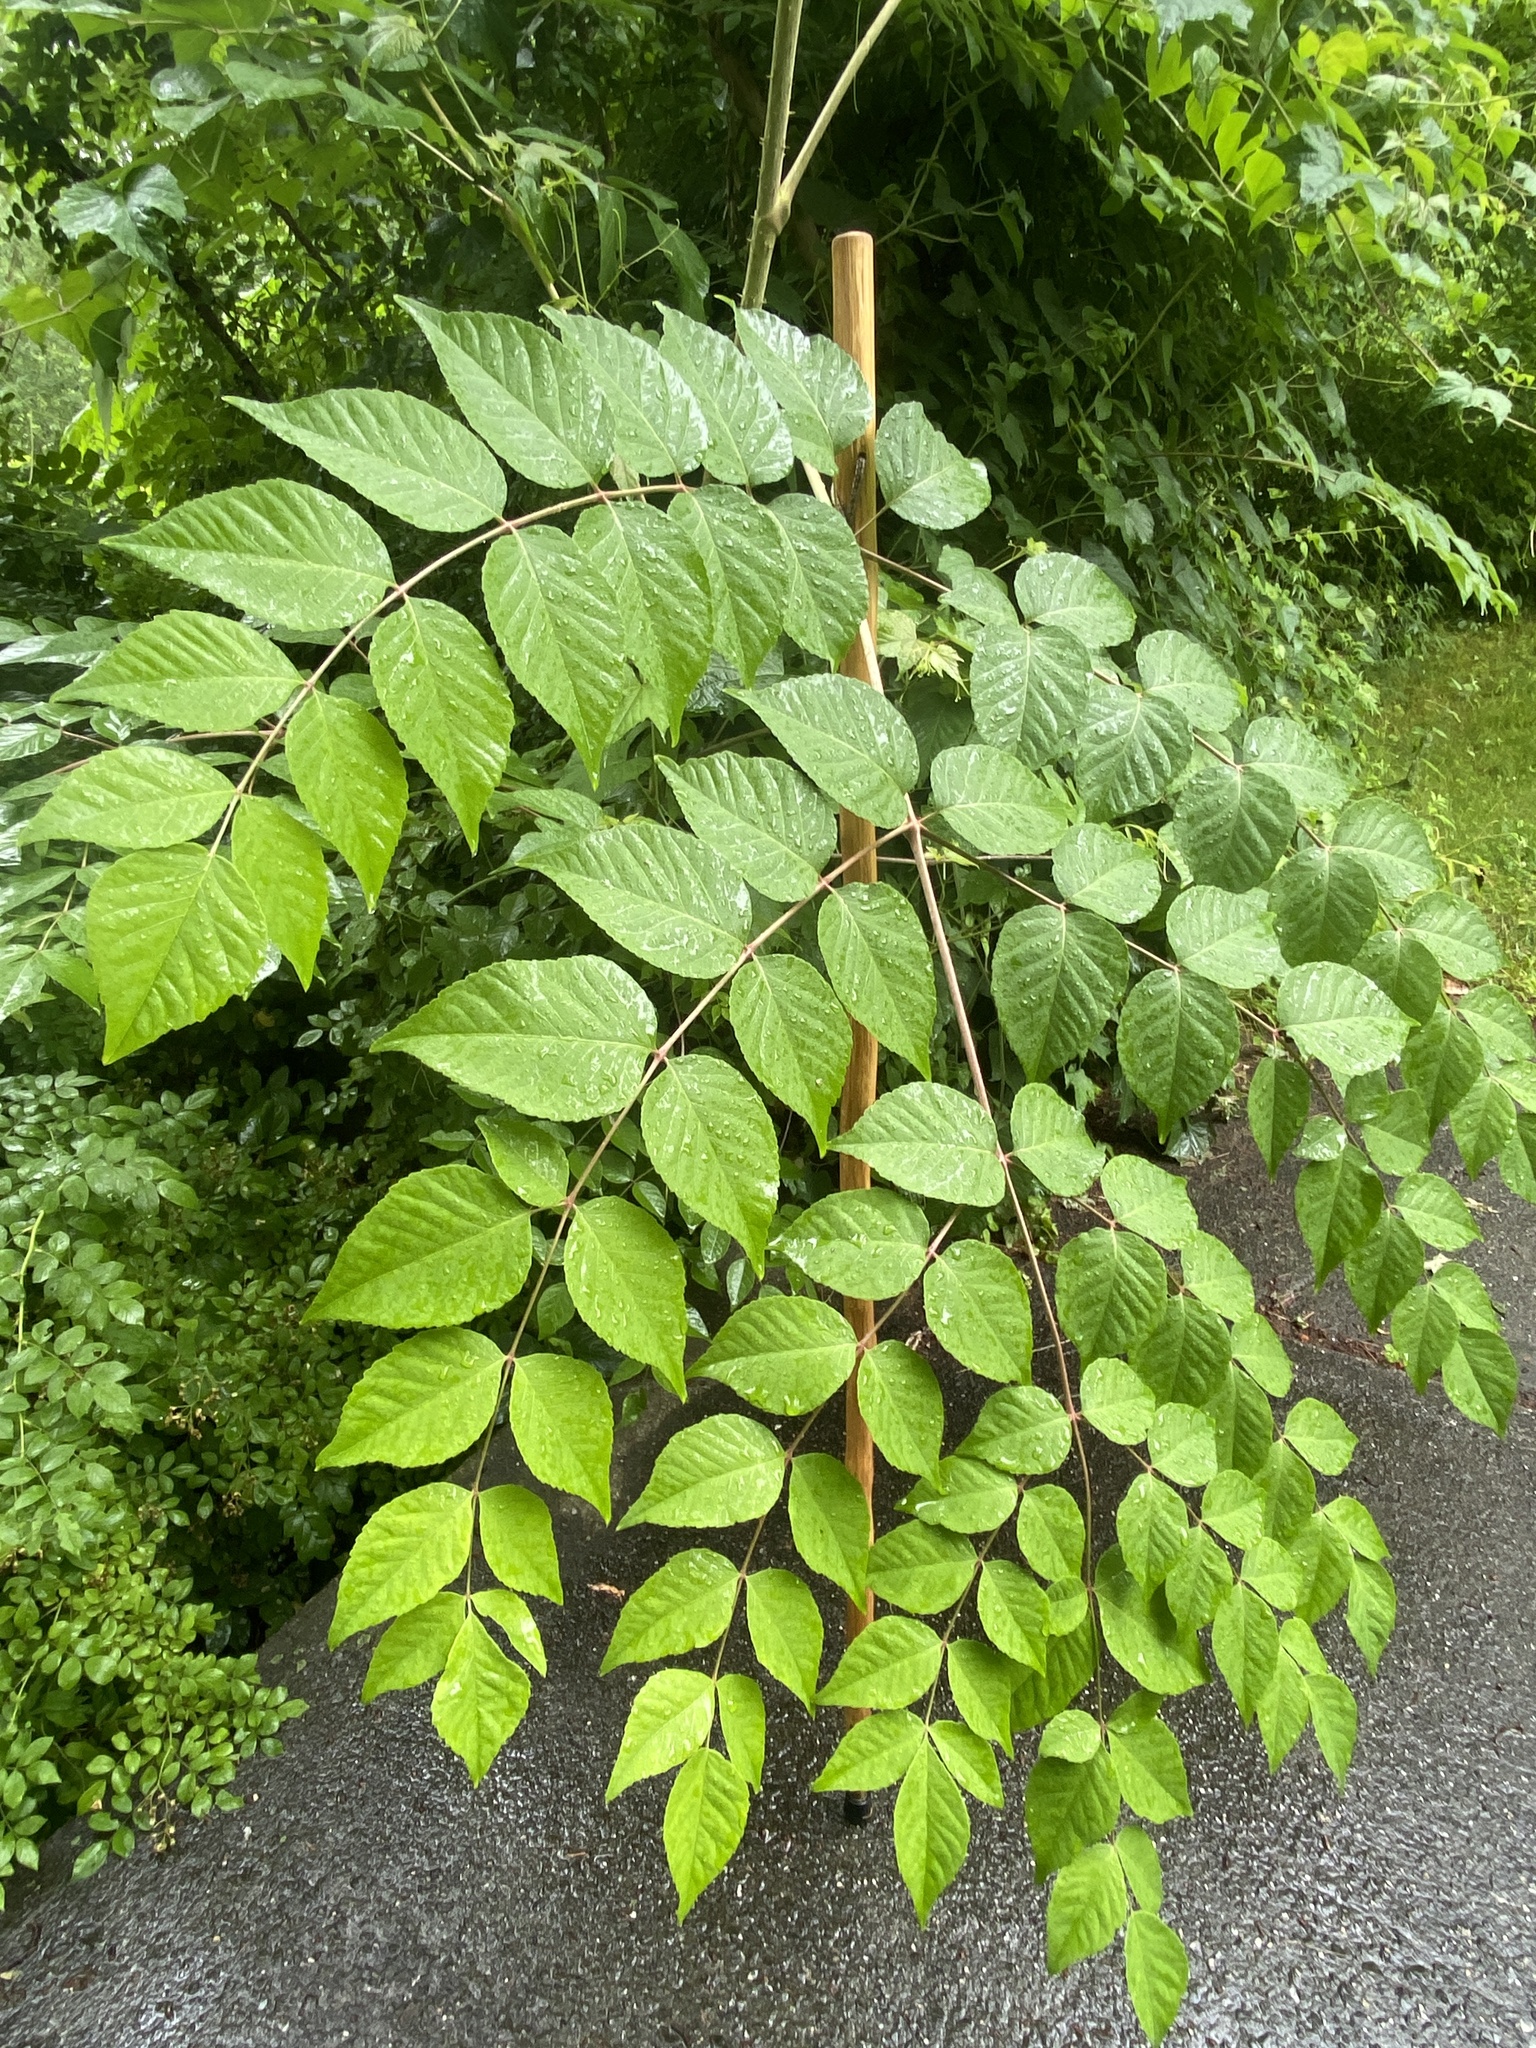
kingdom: Plantae
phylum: Tracheophyta
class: Magnoliopsida
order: Apiales
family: Araliaceae
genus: Aralia
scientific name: Aralia elata
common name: Japanese angelica-tree
